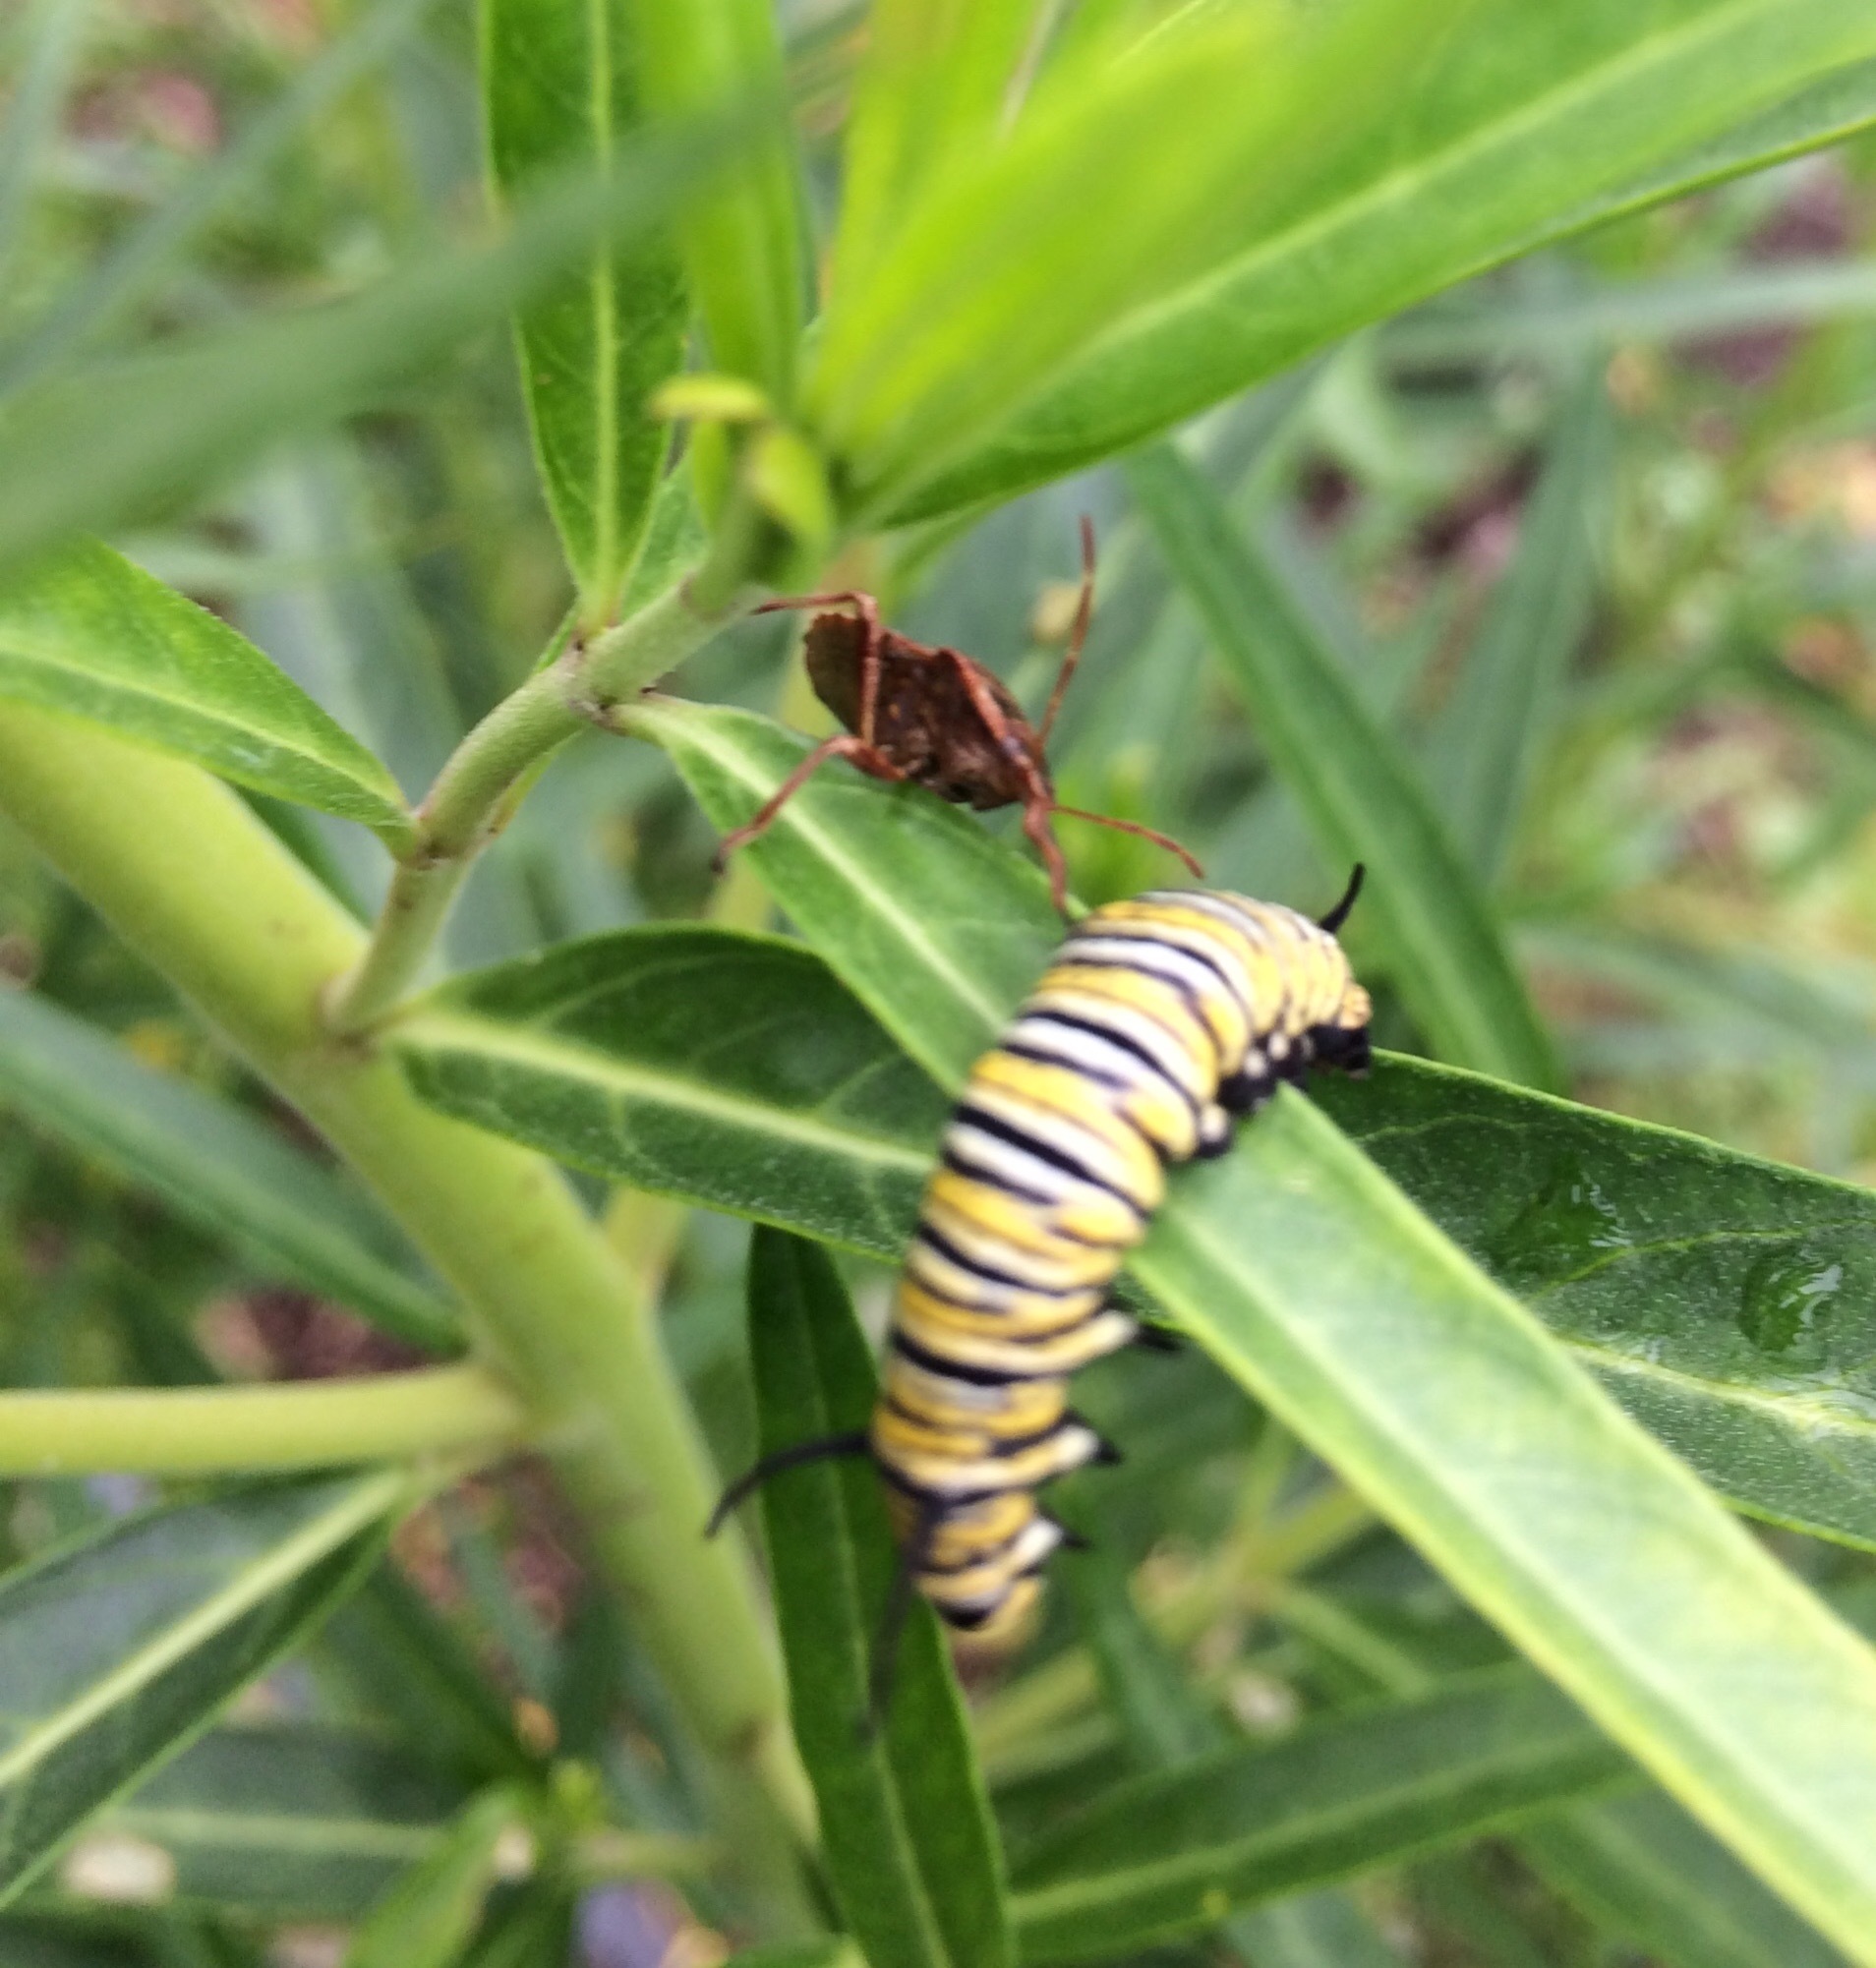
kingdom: Animalia
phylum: Arthropoda
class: Insecta
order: Hemiptera
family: Pentatomidae
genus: Cermatulus
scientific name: Cermatulus nasalis
